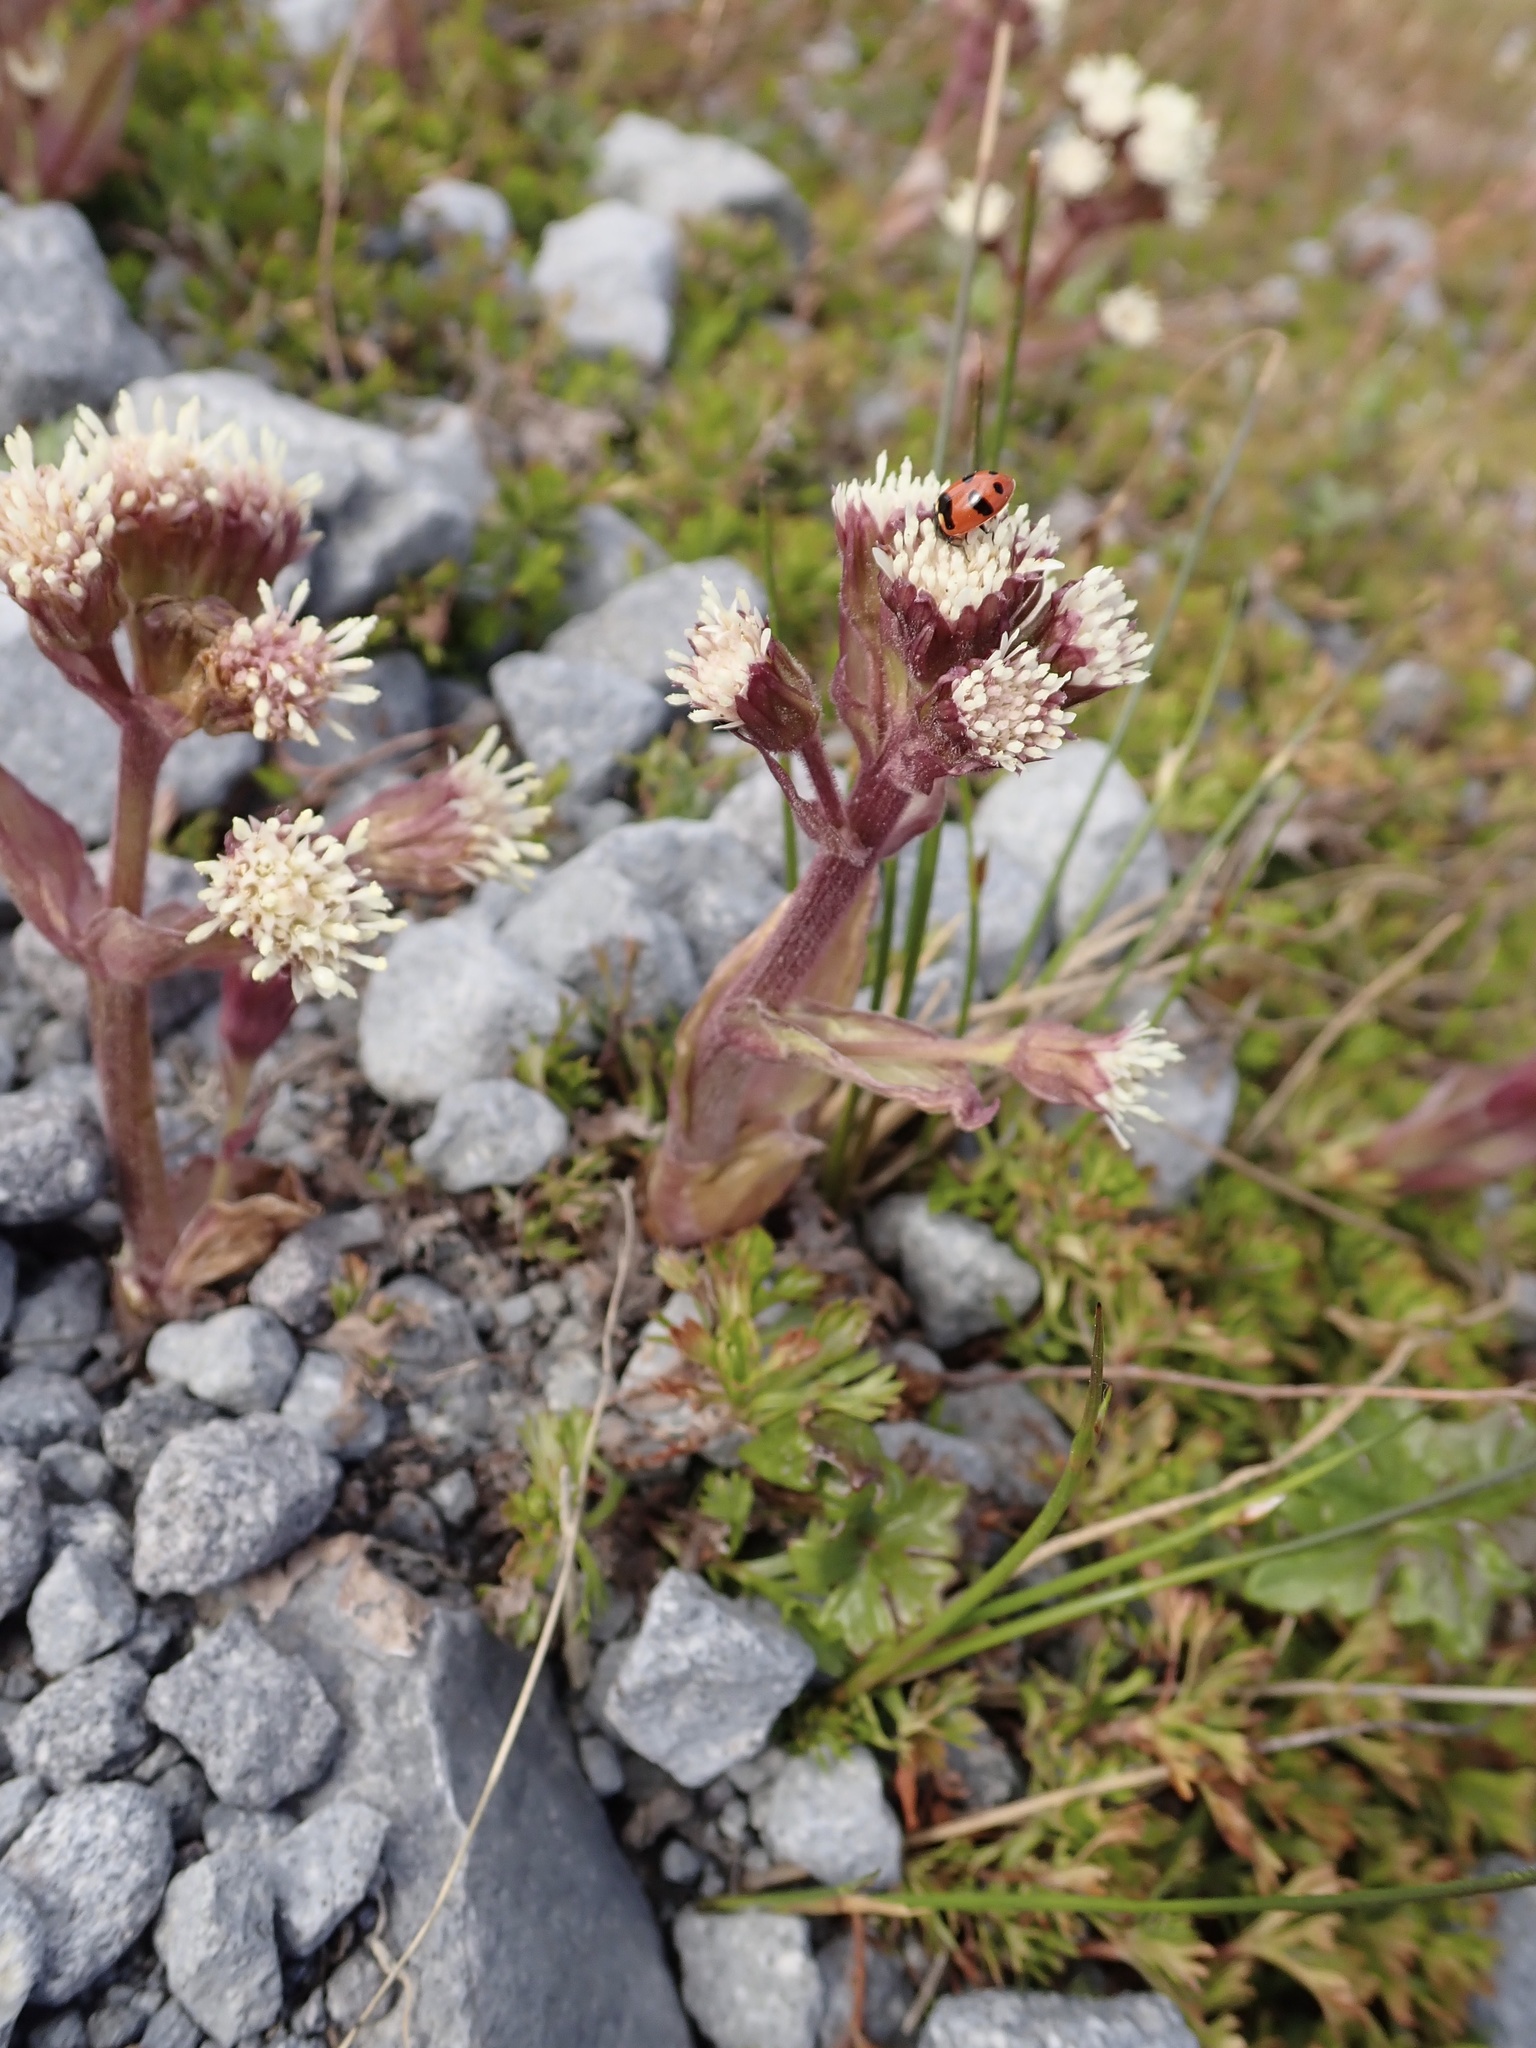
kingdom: Plantae
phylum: Tracheophyta
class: Magnoliopsida
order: Asterales
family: Asteraceae
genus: Petasites
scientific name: Petasites frigidus
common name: Arctic butterbur
